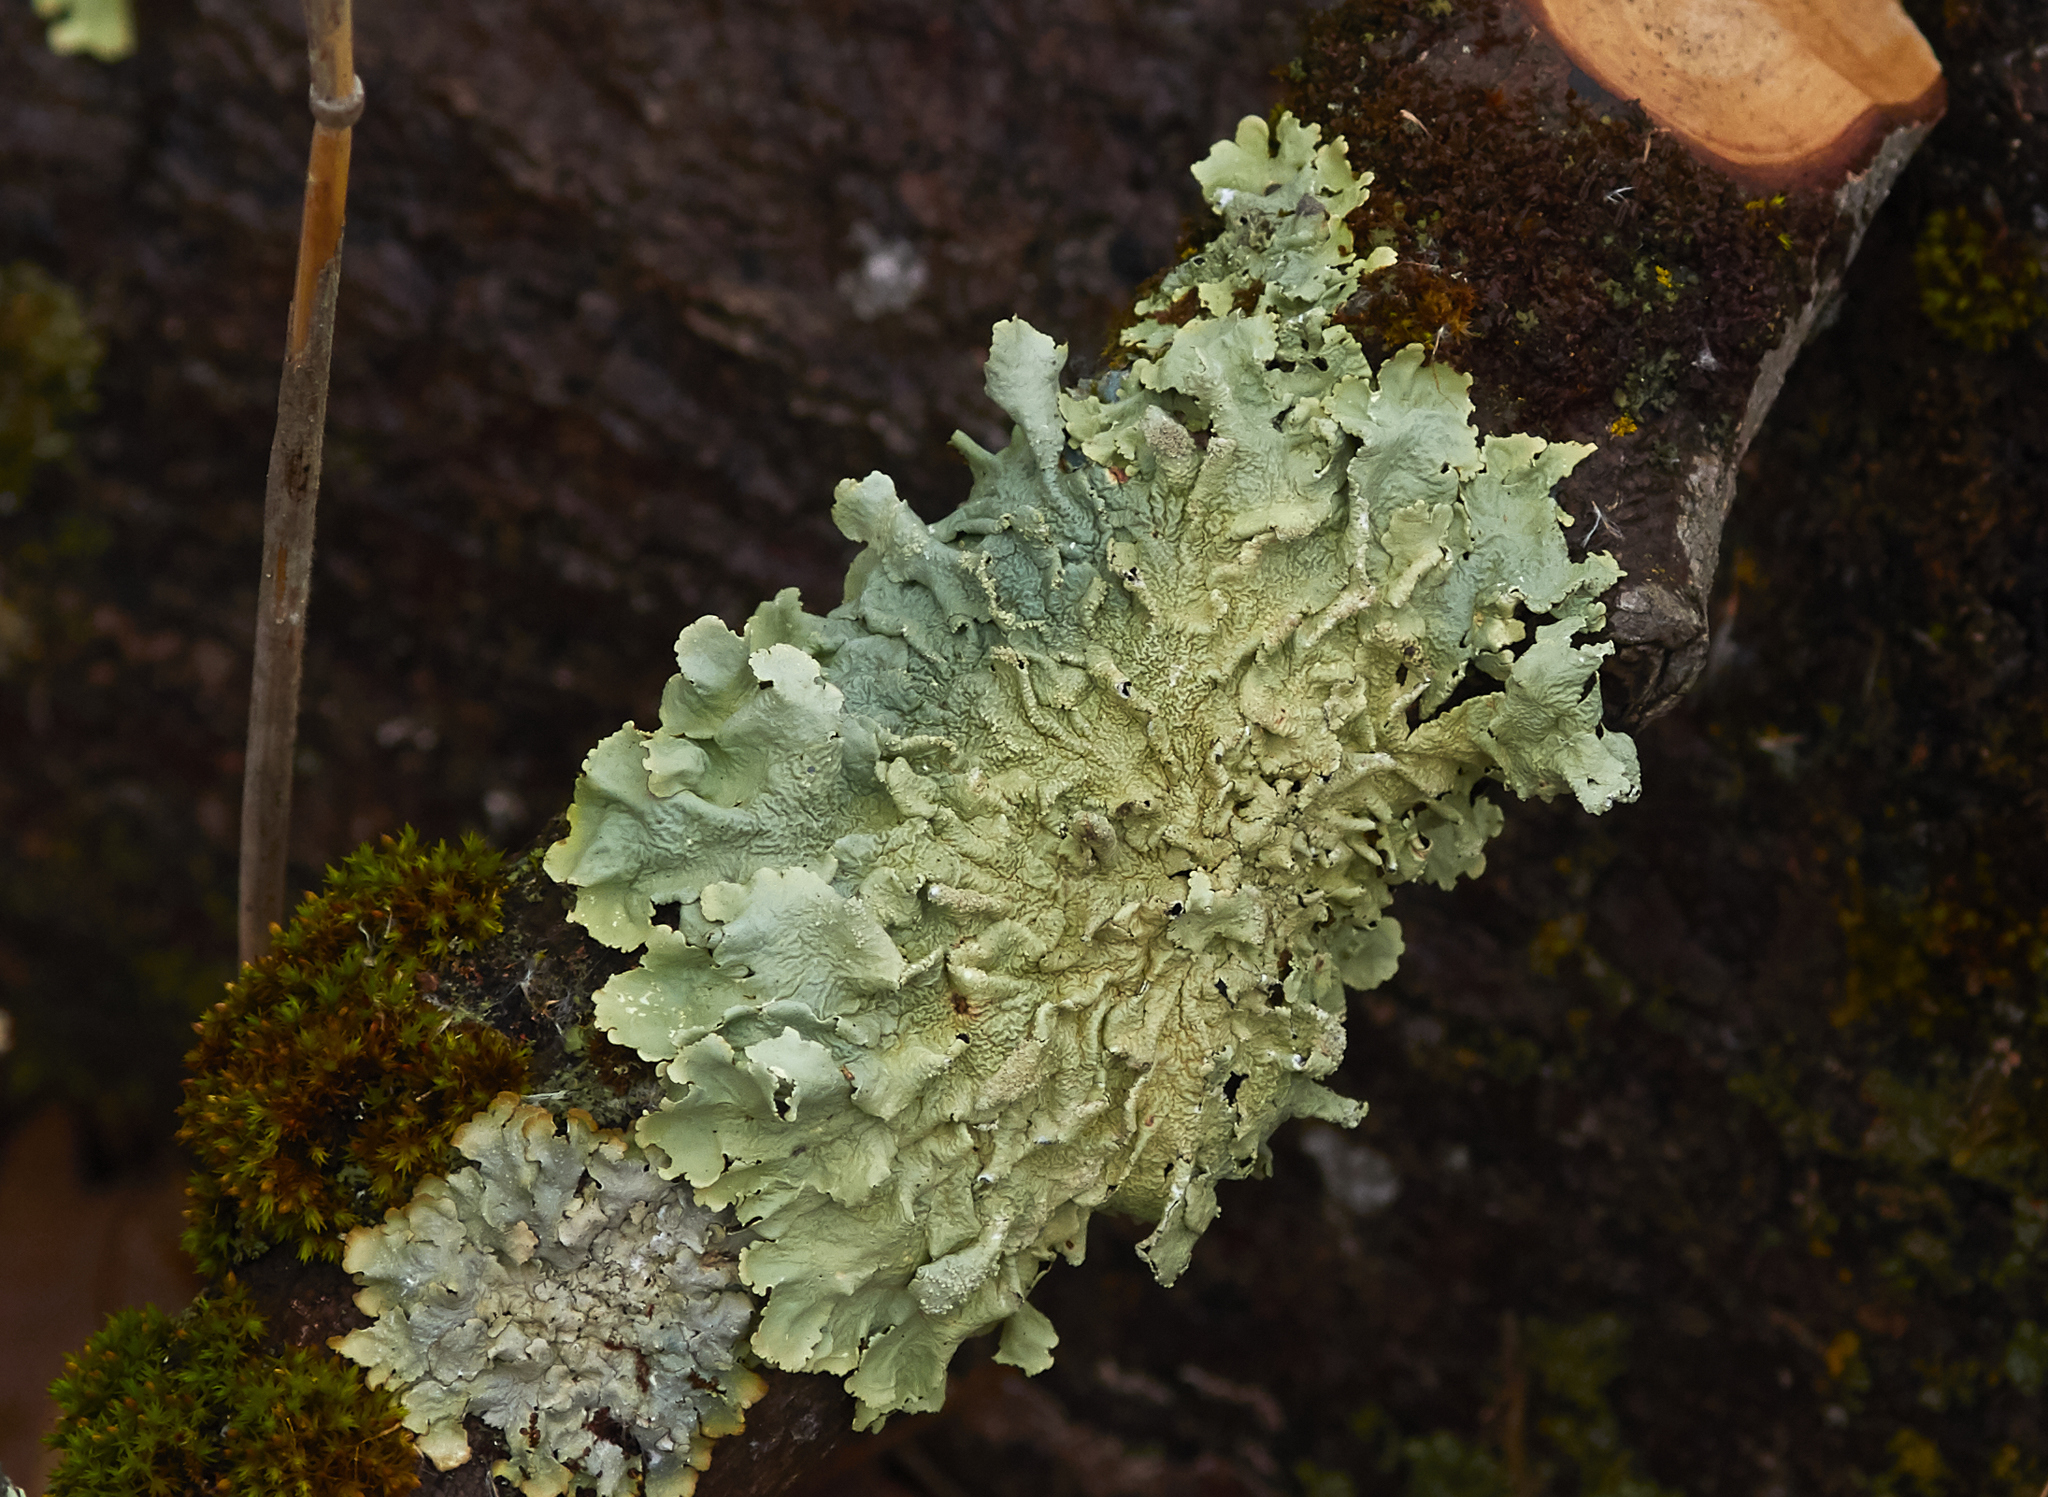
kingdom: Fungi
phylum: Ascomycota
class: Lecanoromycetes
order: Lecanorales
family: Parmeliaceae
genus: Flavoparmelia
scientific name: Flavoparmelia caperata
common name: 40-mile per hour lichen
